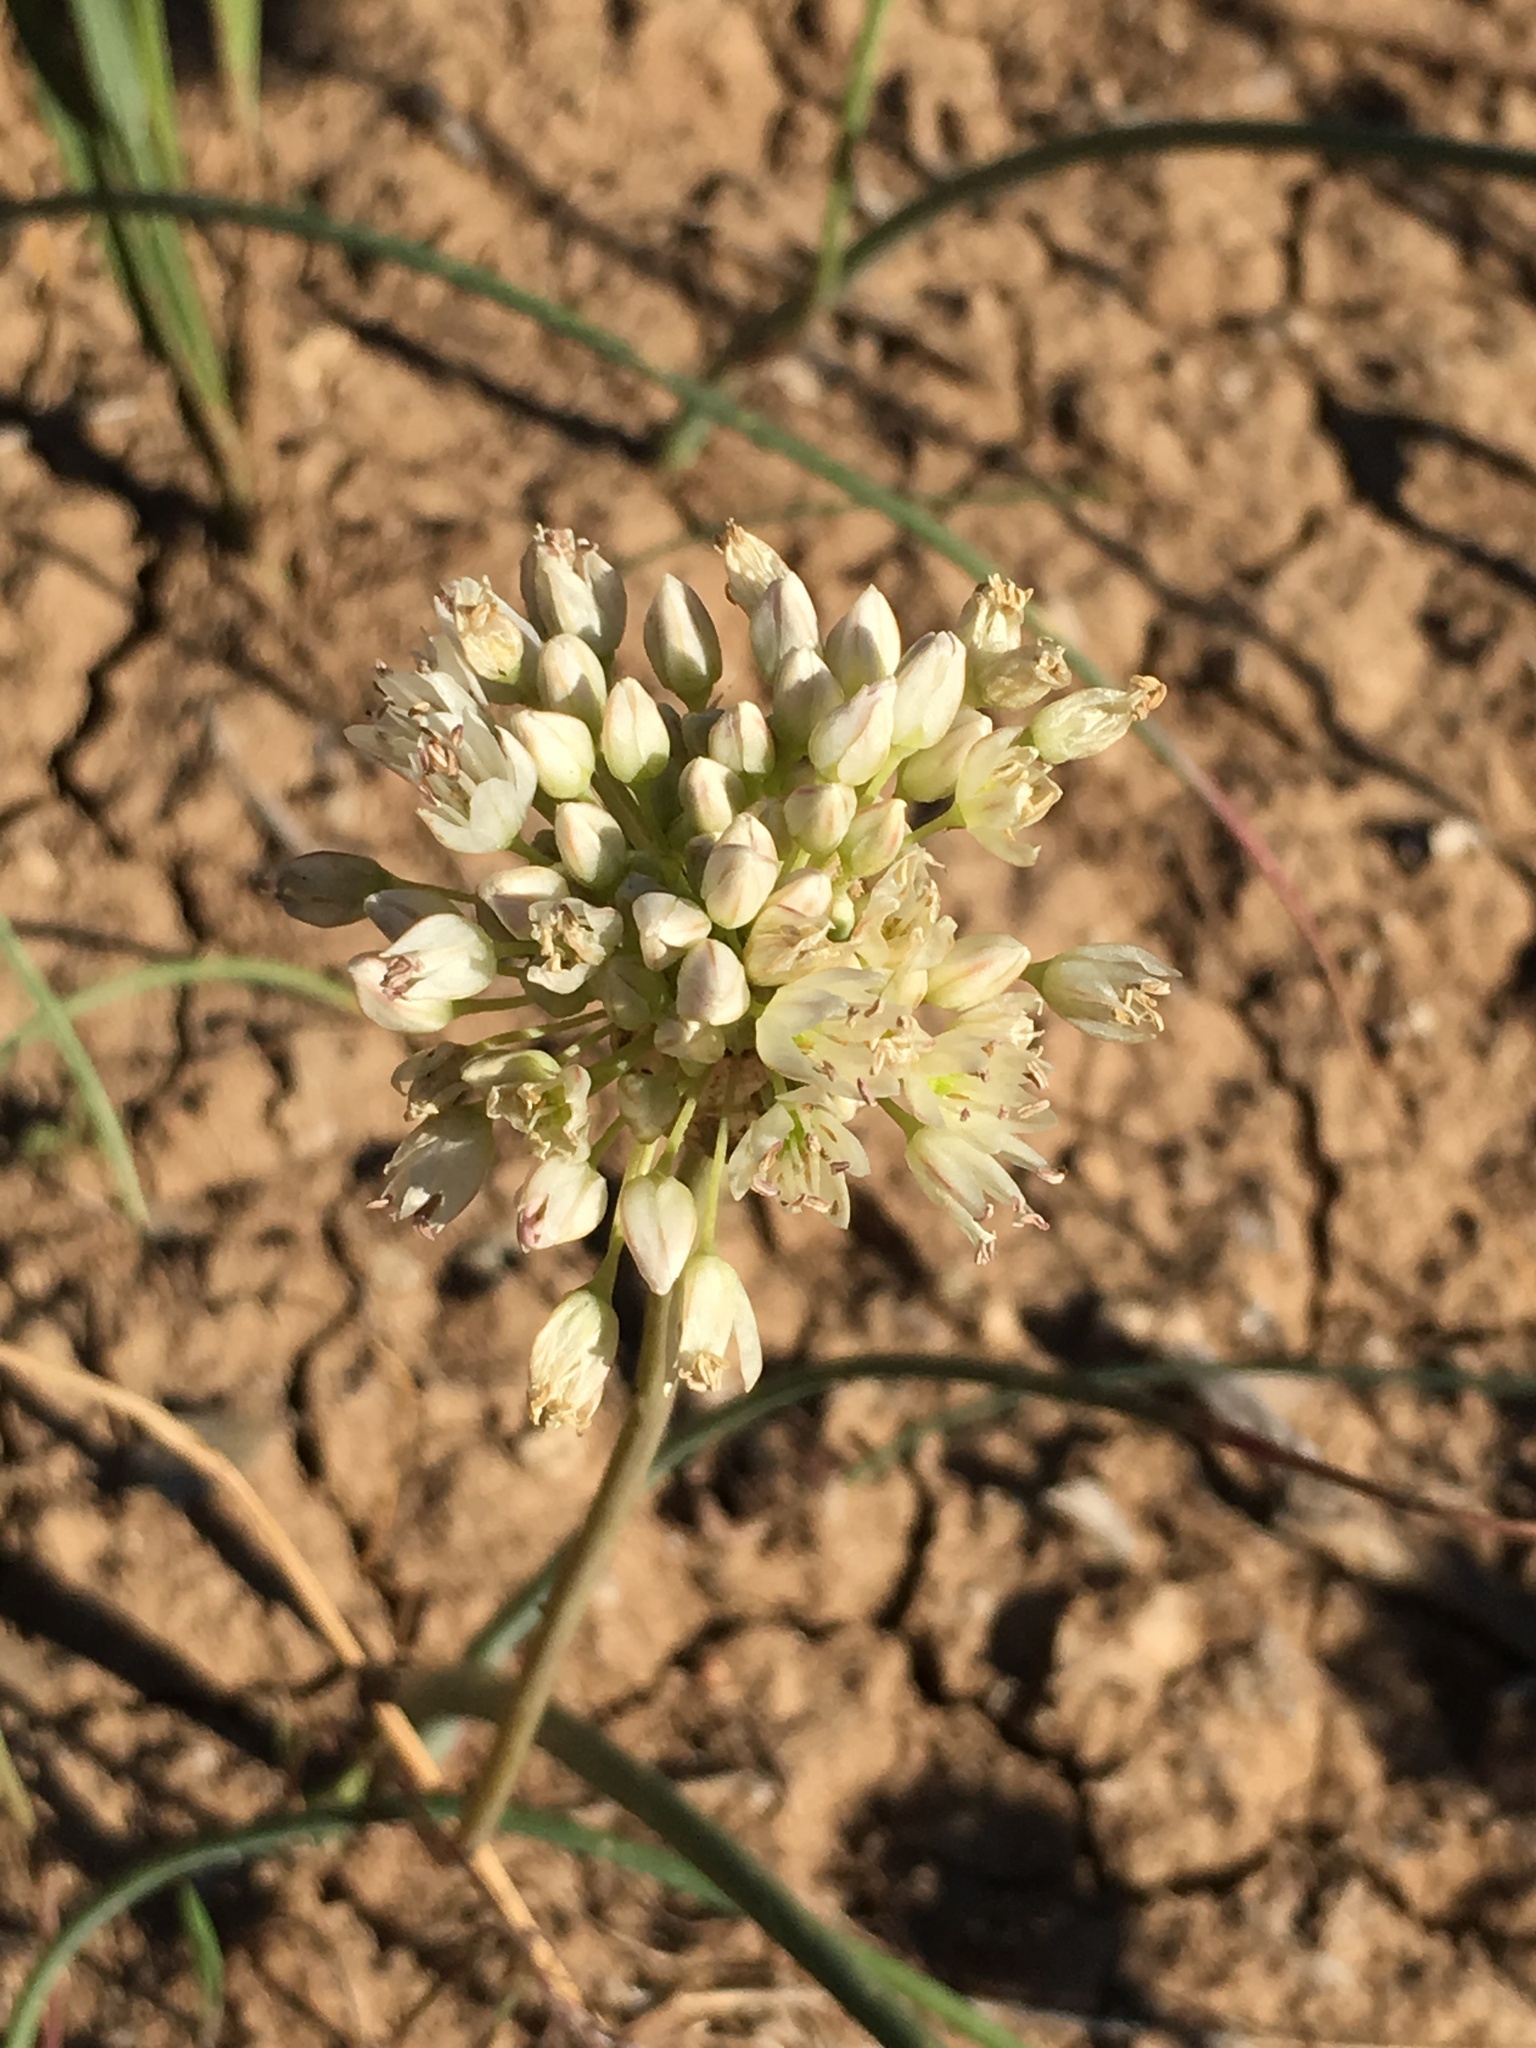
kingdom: Plantae
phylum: Tracheophyta
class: Liliopsida
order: Asparagales
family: Amaryllidaceae
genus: Allium
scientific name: Allium howellii
